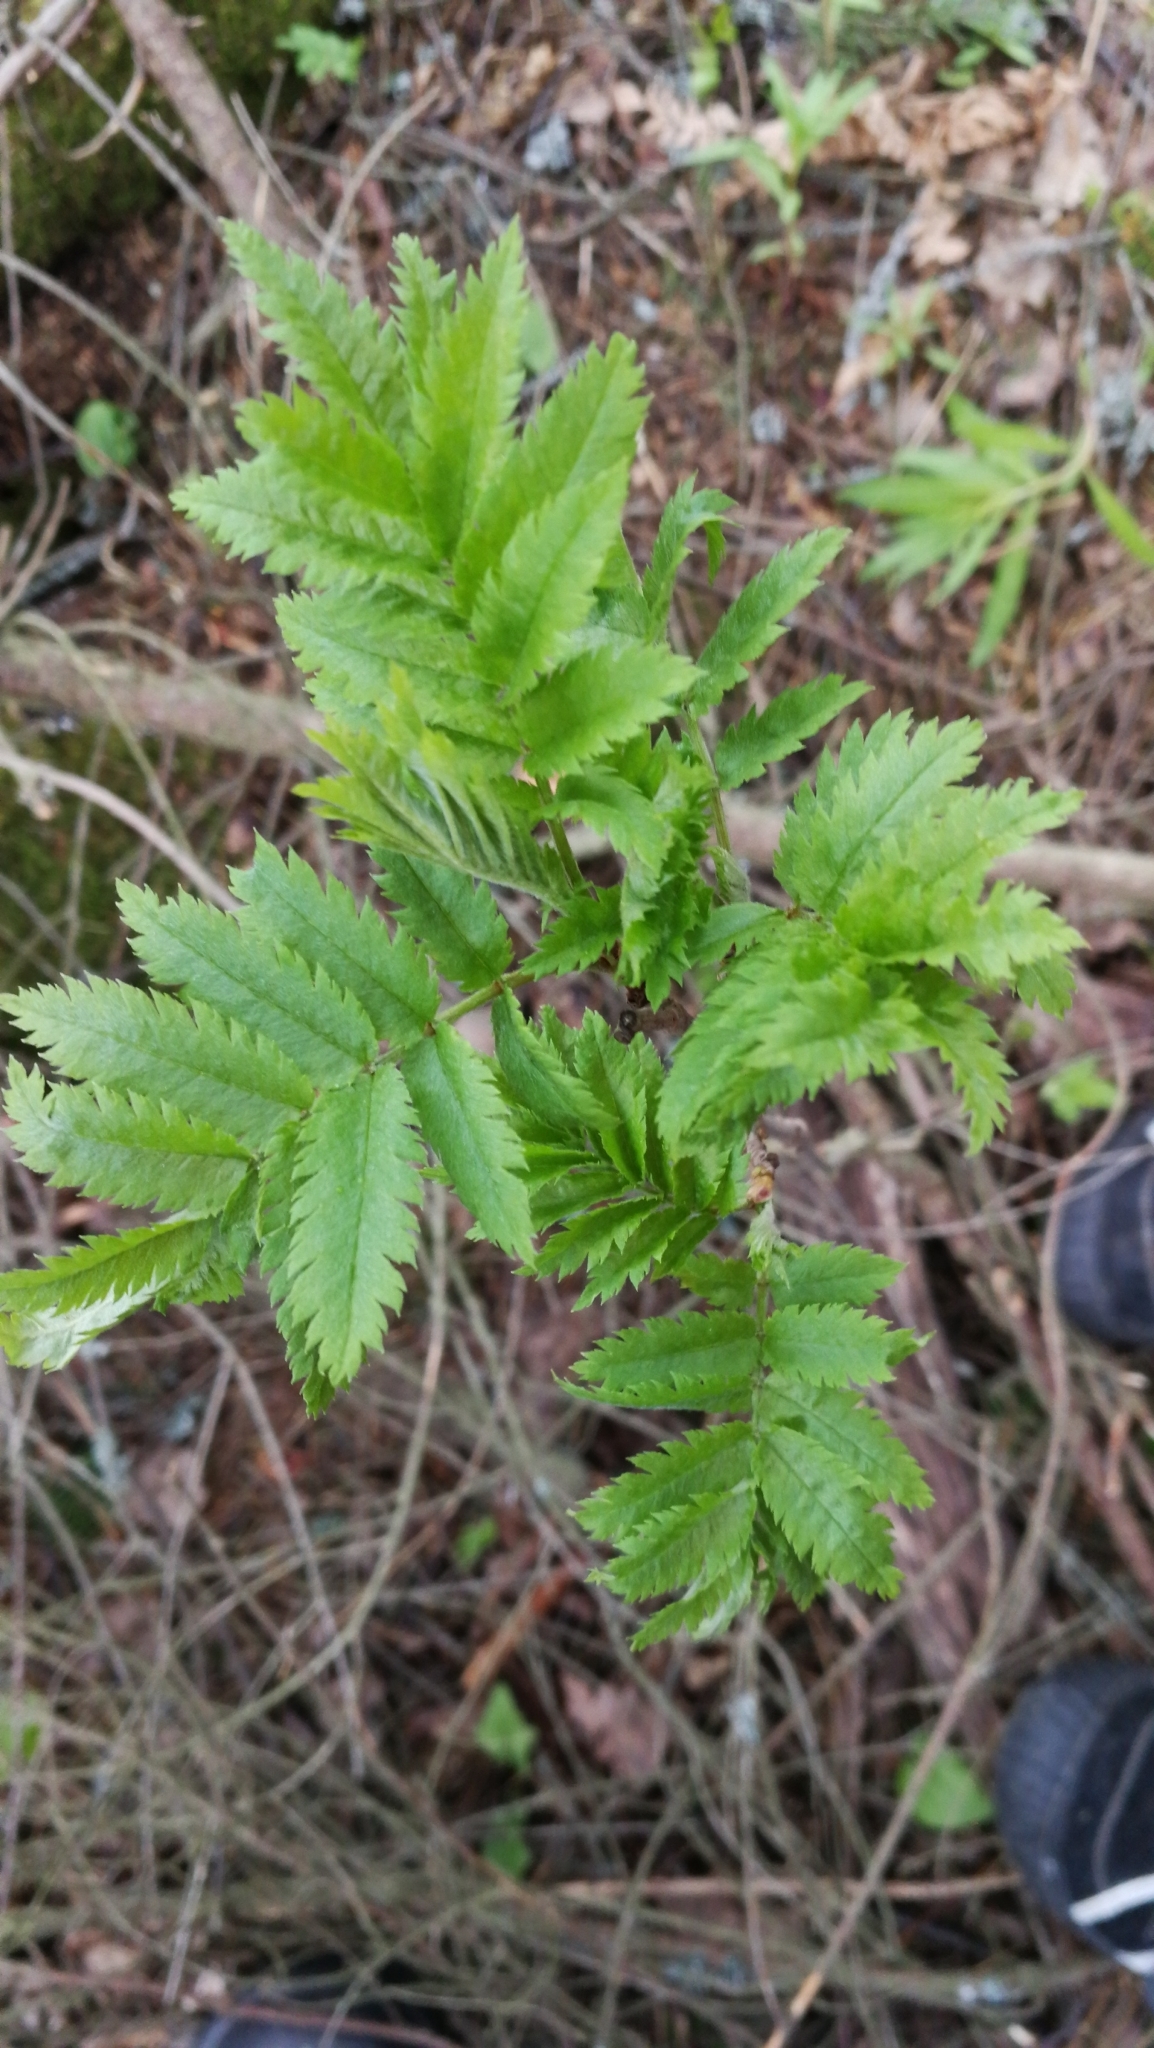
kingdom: Plantae
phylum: Tracheophyta
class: Magnoliopsida
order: Rosales
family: Rosaceae
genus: Sorbus
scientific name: Sorbus aucuparia
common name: Rowan
